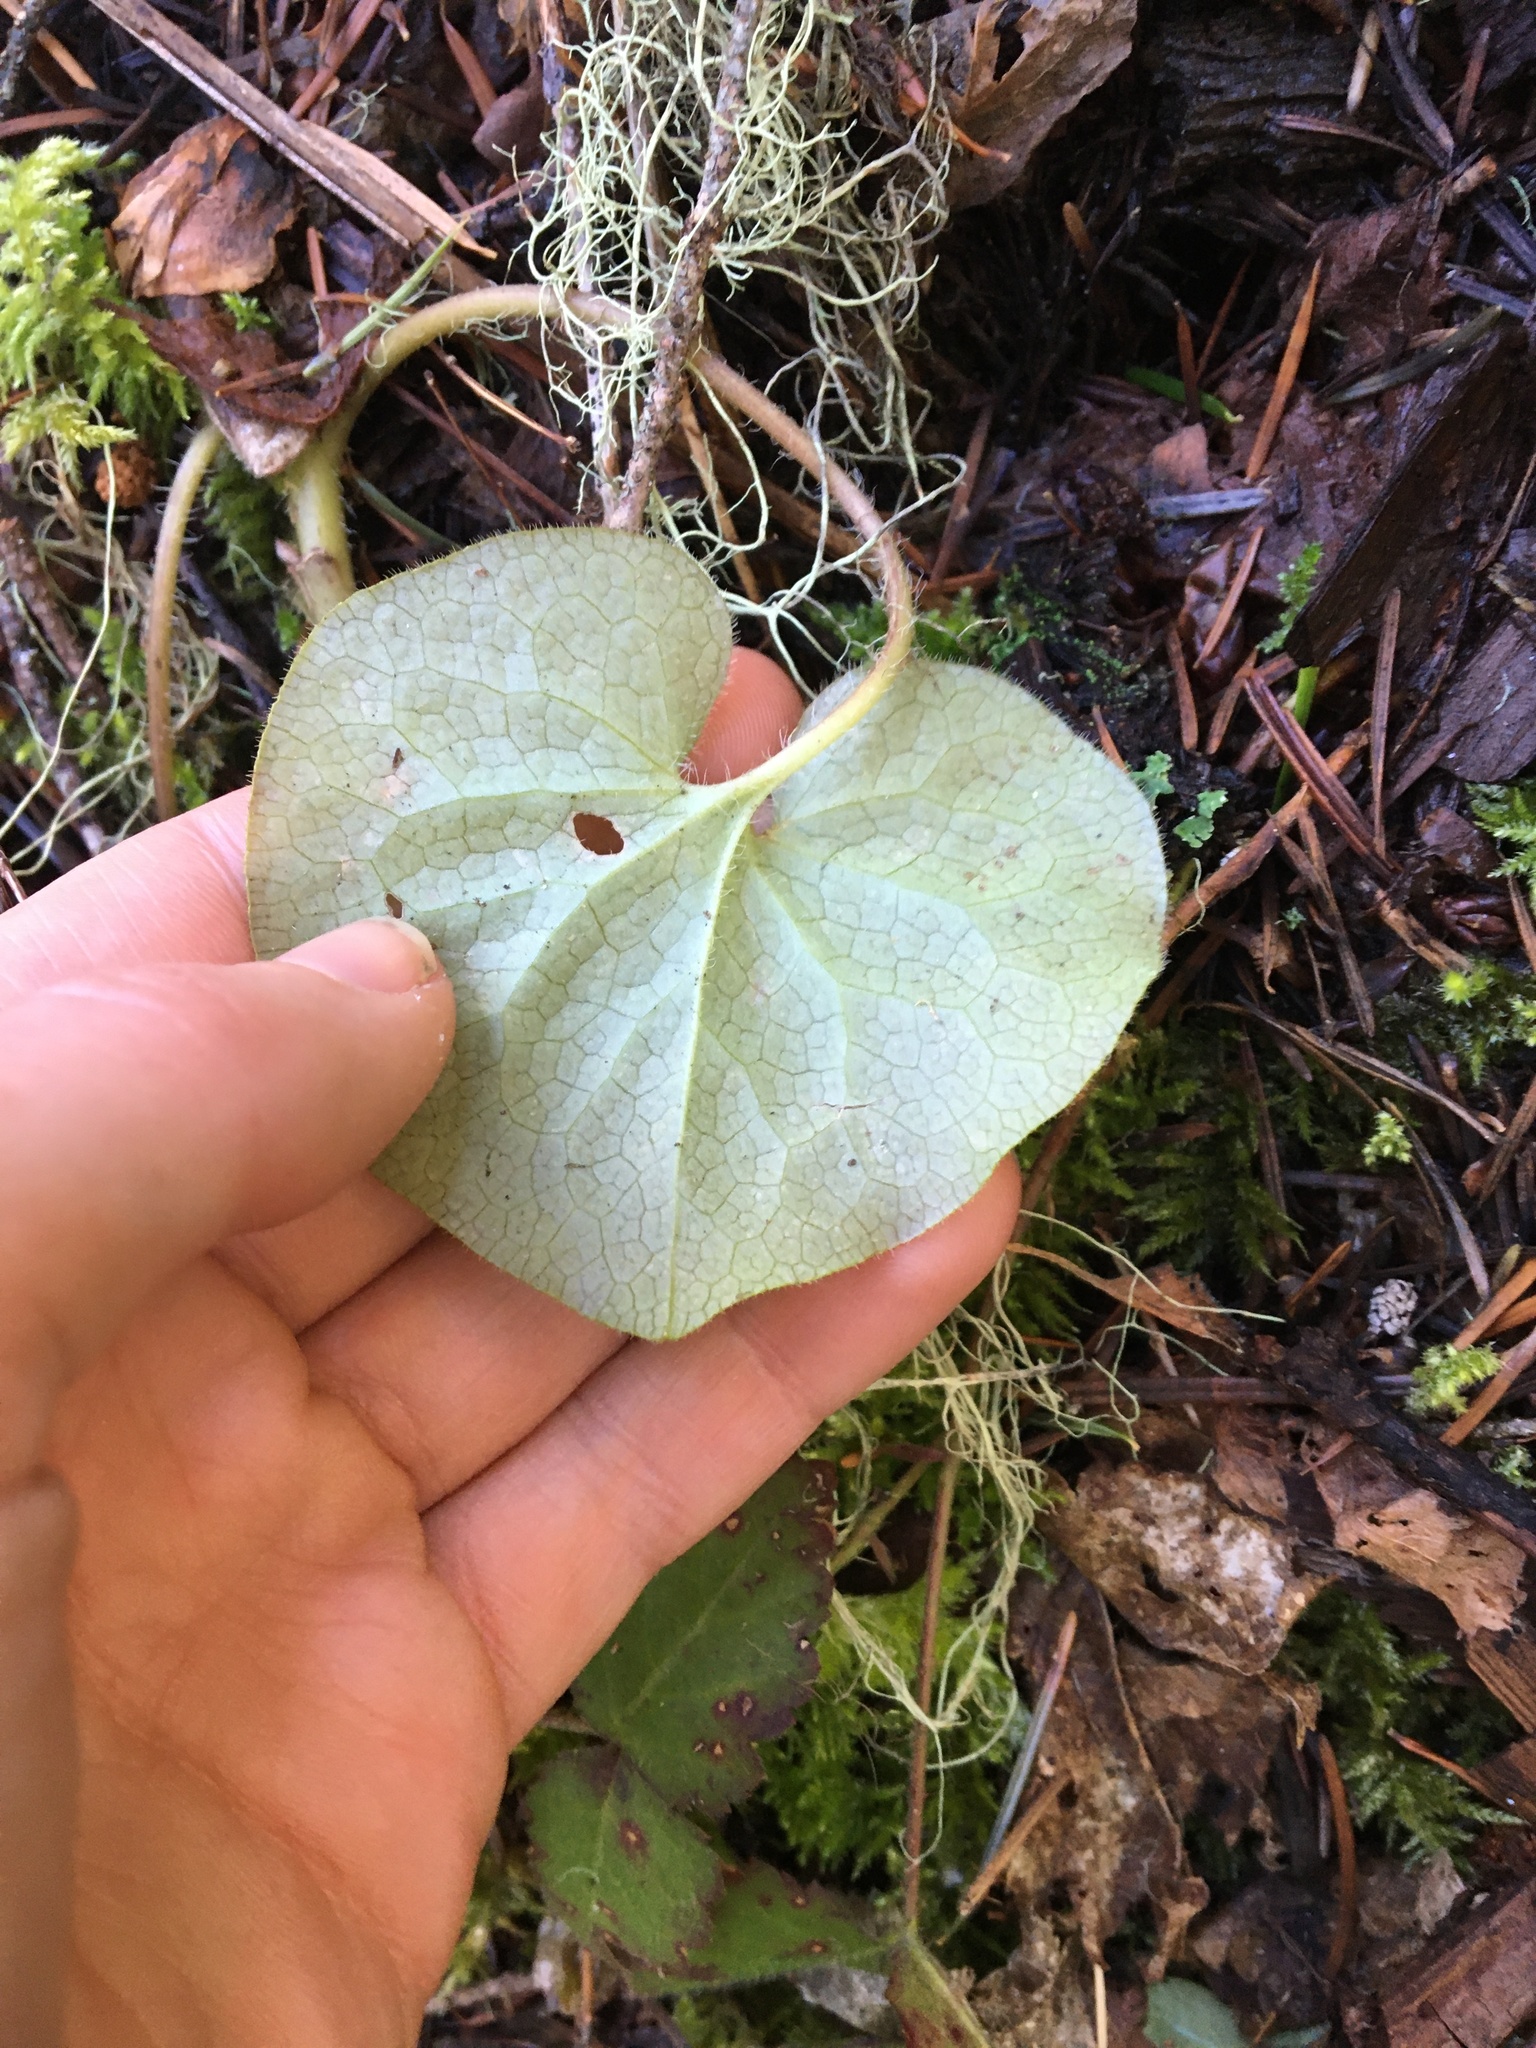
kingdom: Plantae
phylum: Tracheophyta
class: Magnoliopsida
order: Piperales
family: Aristolochiaceae
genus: Asarum
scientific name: Asarum caudatum
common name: Wild ginger
